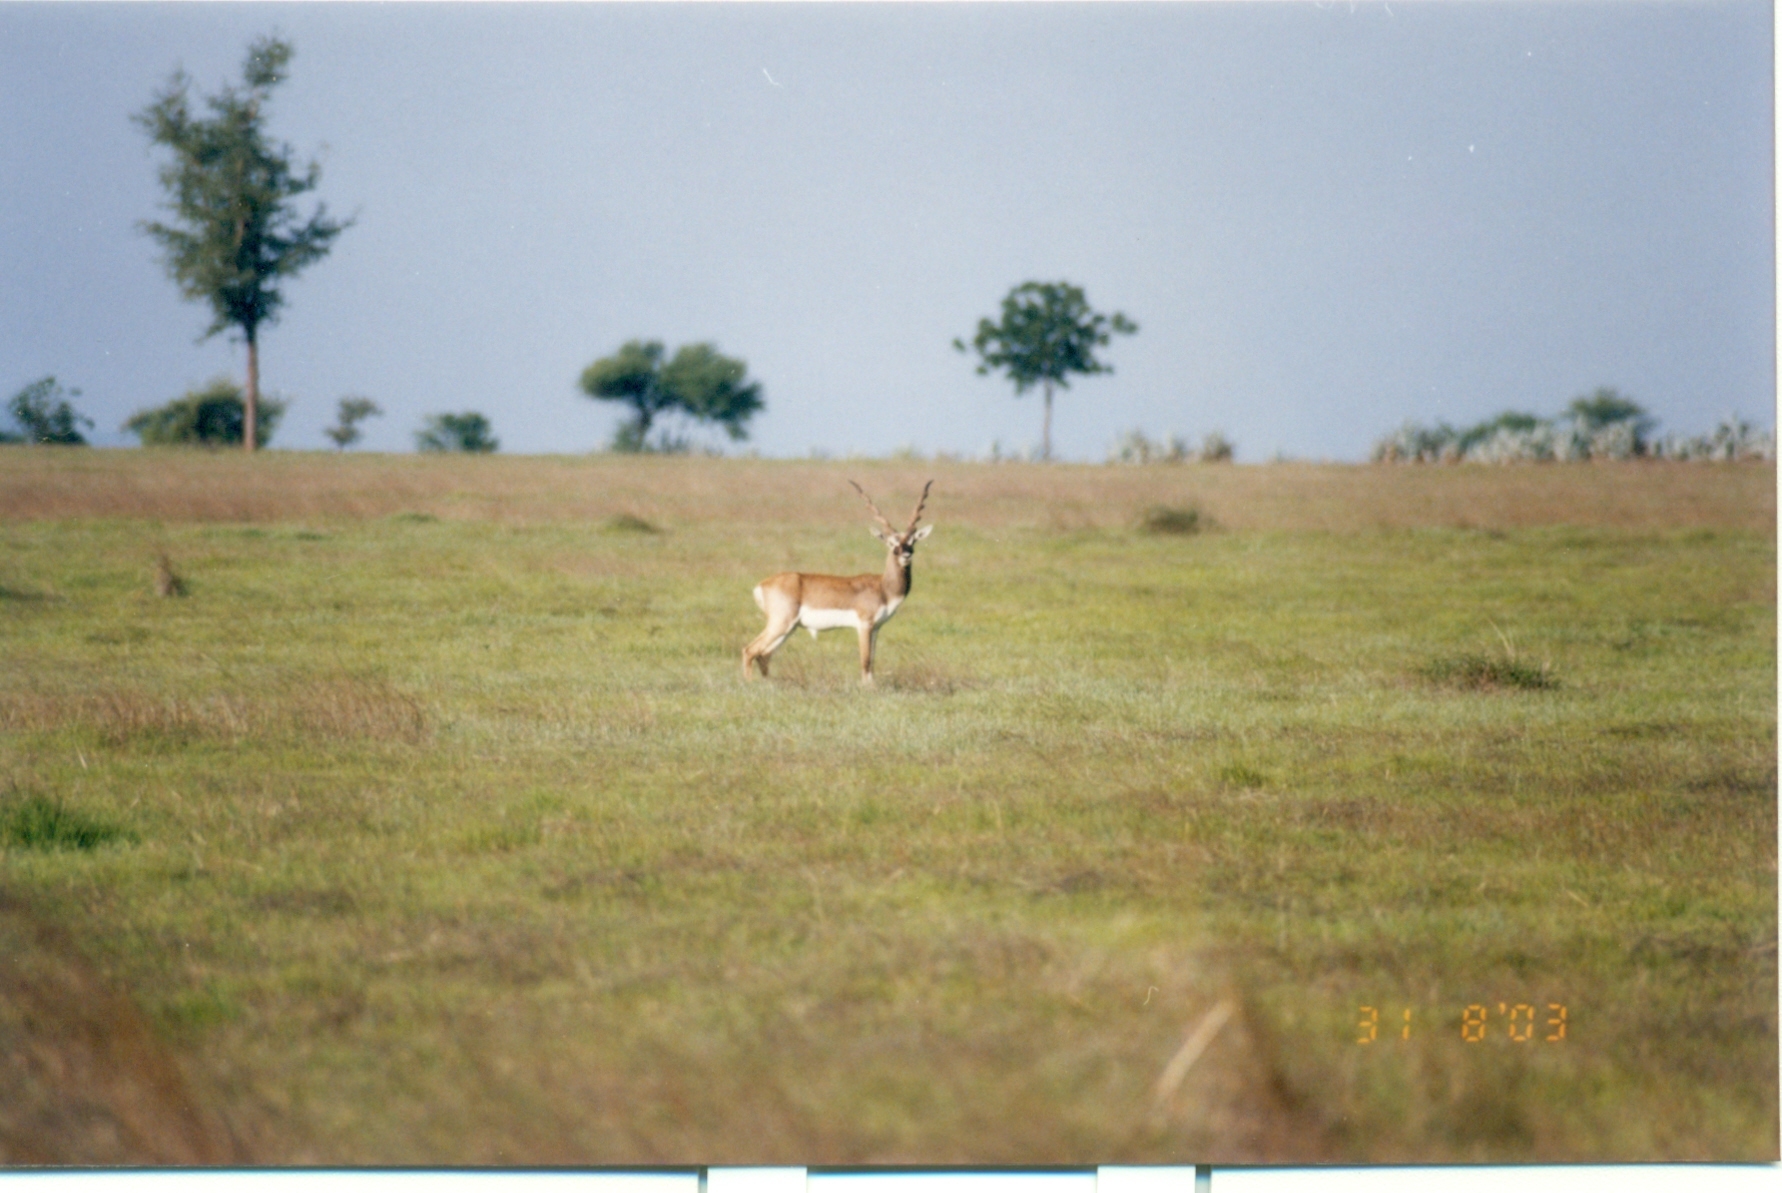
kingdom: Animalia
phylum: Chordata
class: Mammalia
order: Artiodactyla
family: Bovidae
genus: Antilope
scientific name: Antilope cervicapra
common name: Blackbuck
